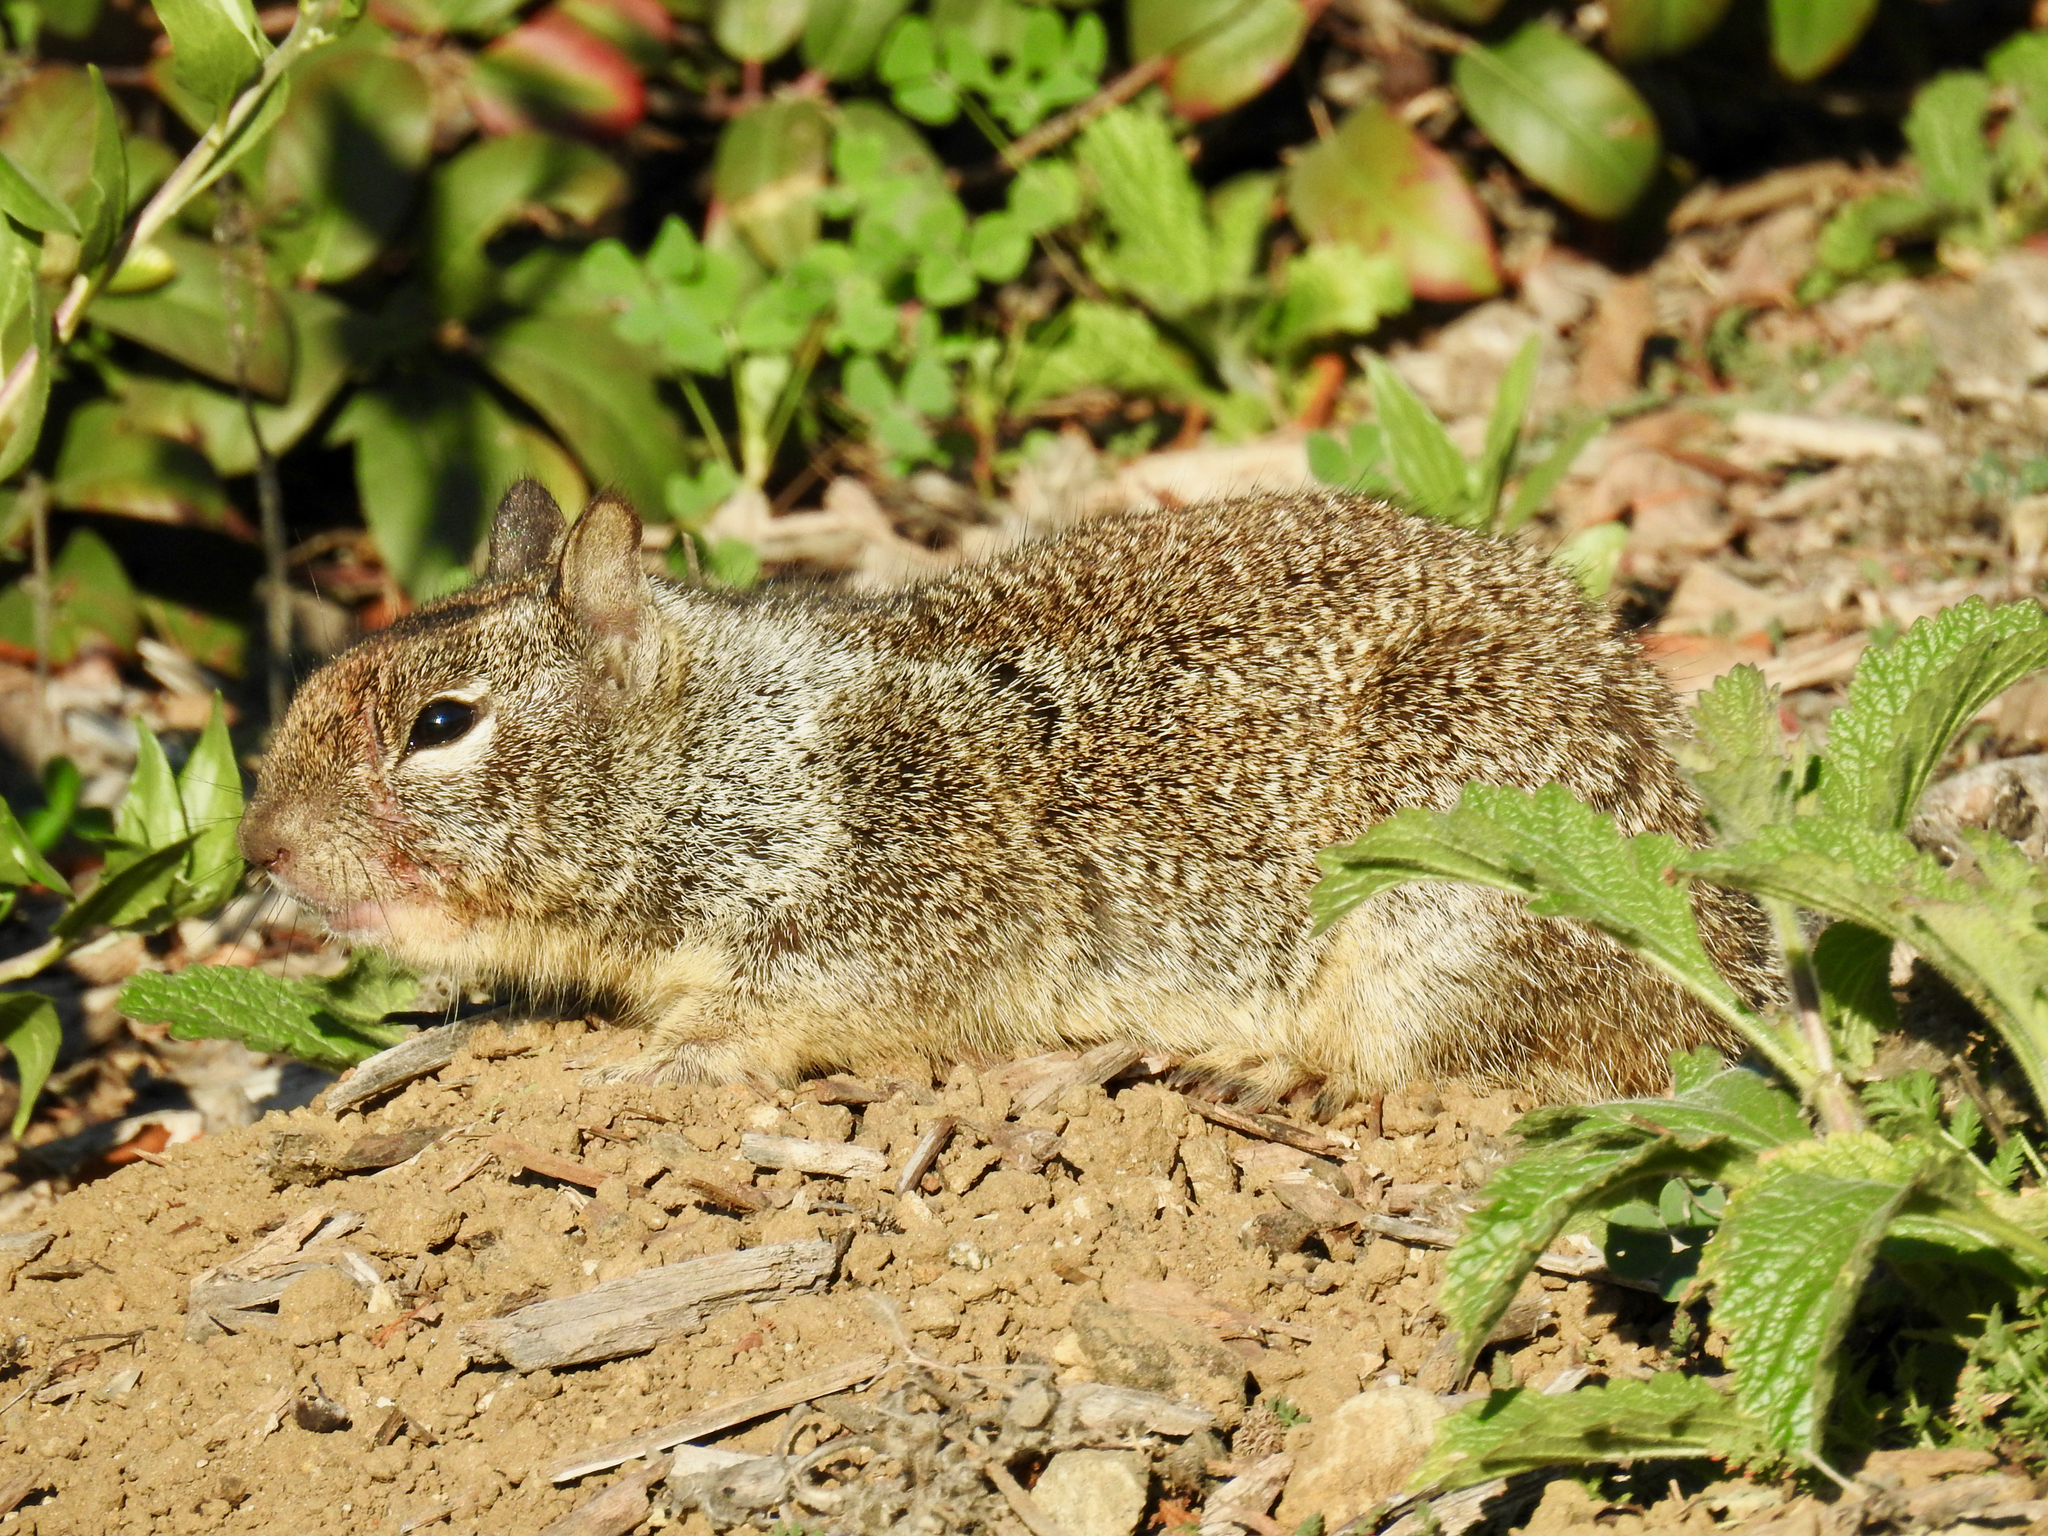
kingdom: Animalia
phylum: Chordata
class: Mammalia
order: Rodentia
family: Sciuridae
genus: Otospermophilus
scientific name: Otospermophilus beecheyi
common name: California ground squirrel
